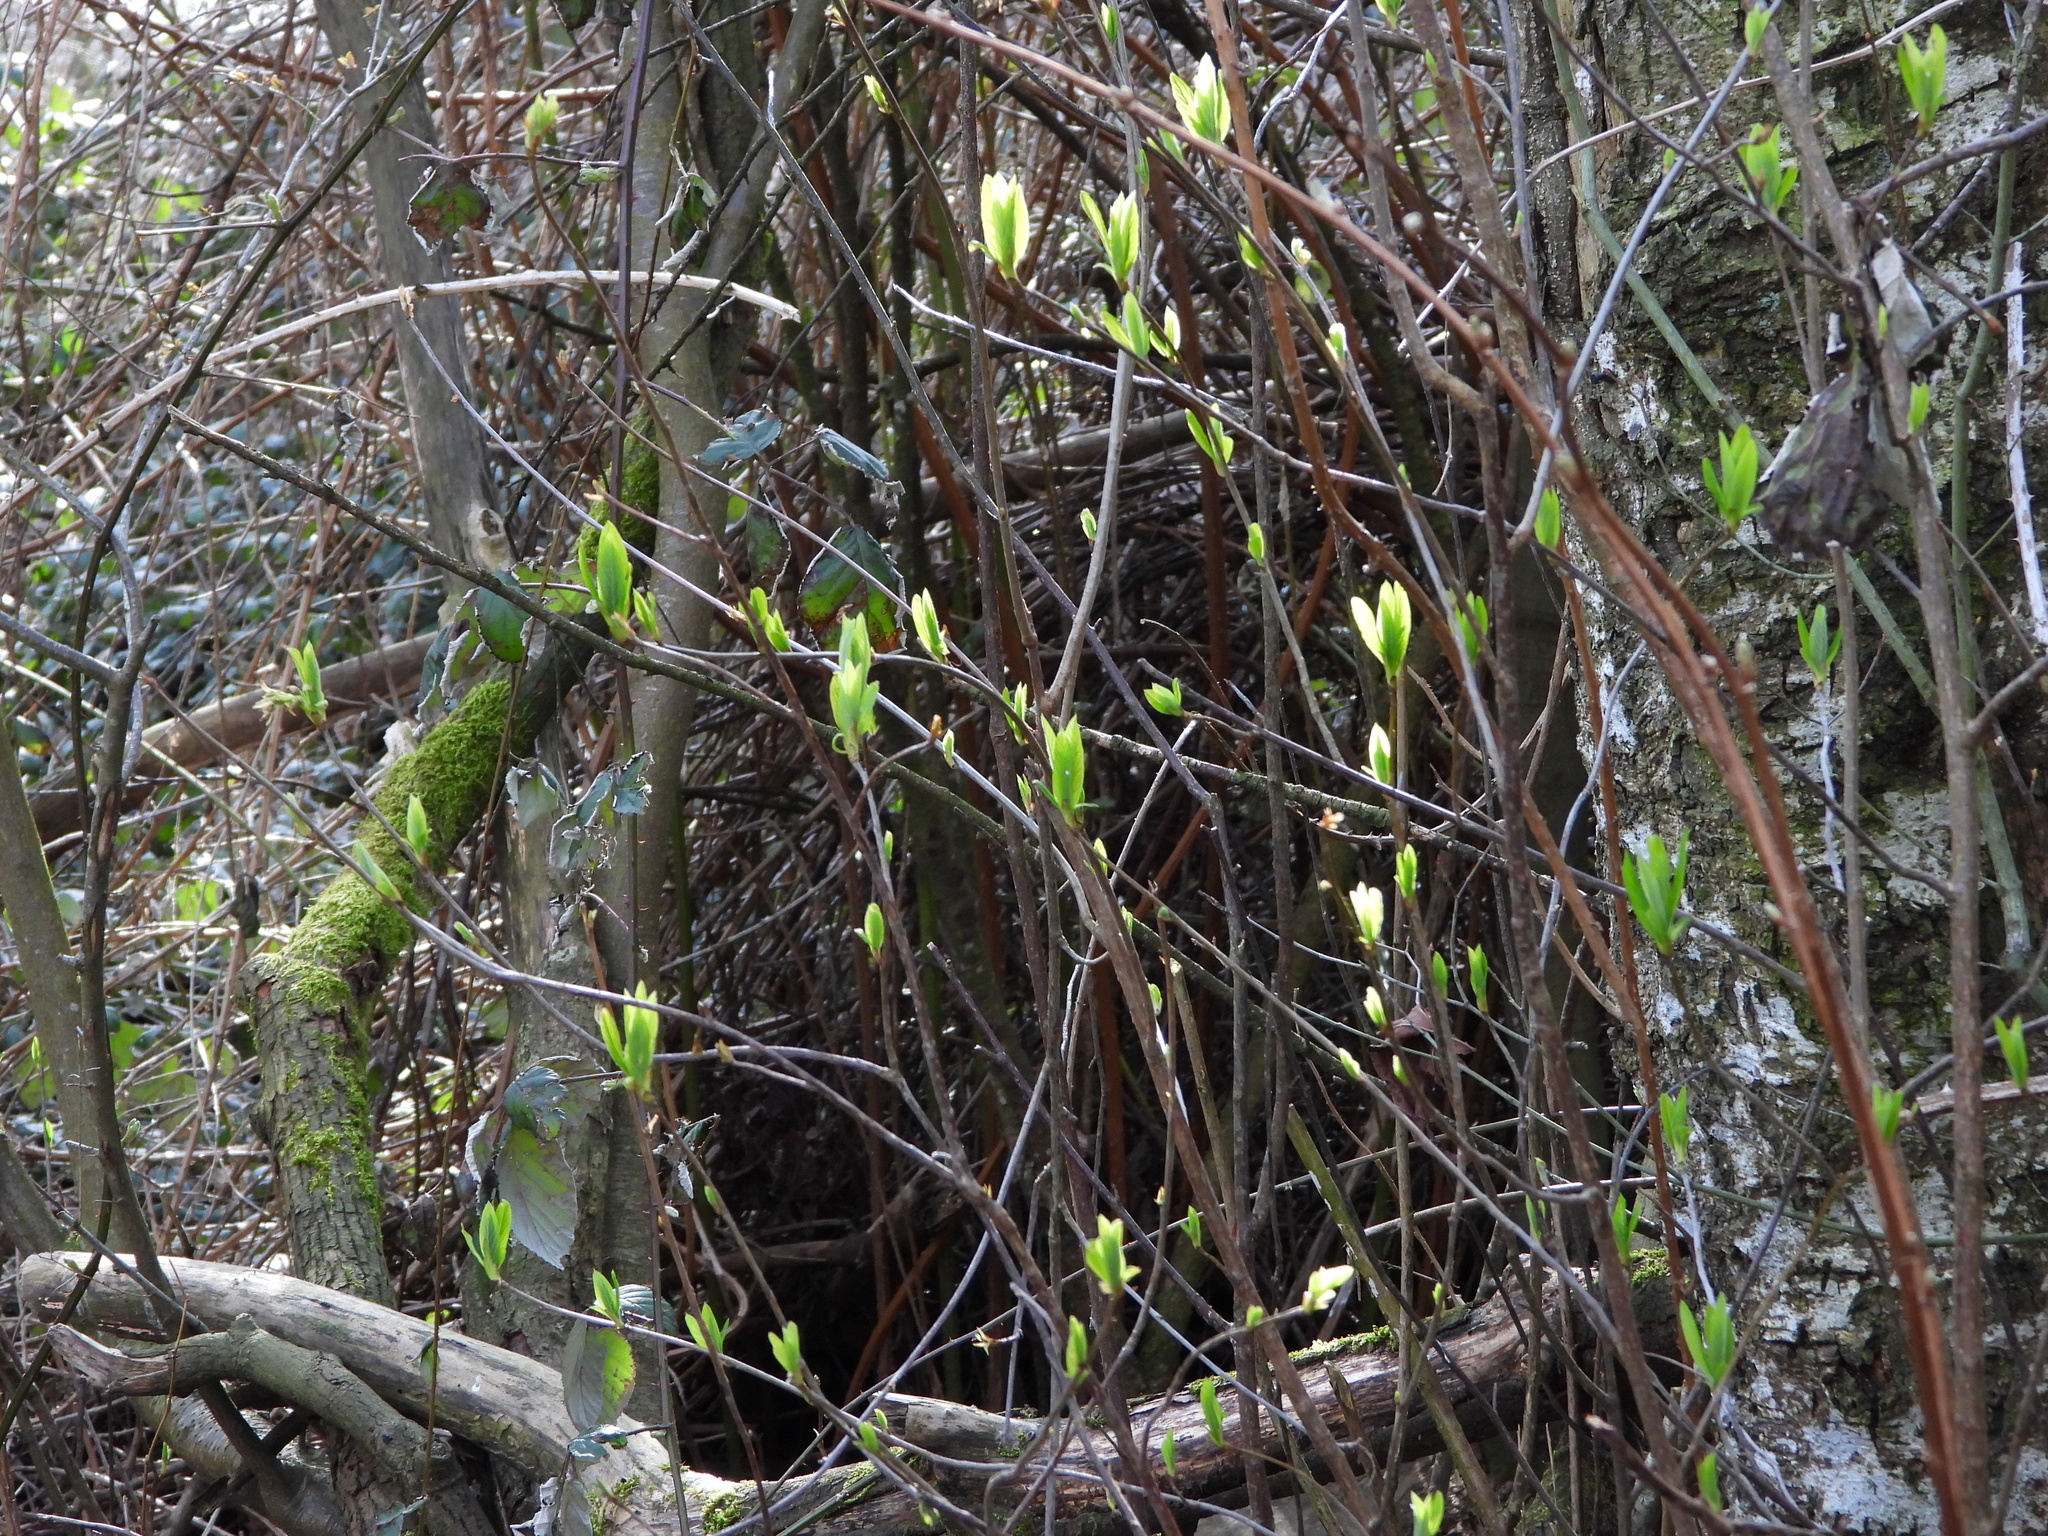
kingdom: Plantae
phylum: Tracheophyta
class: Magnoliopsida
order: Rosales
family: Rosaceae
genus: Oemleria
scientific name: Oemleria cerasiformis
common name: Osoberry
